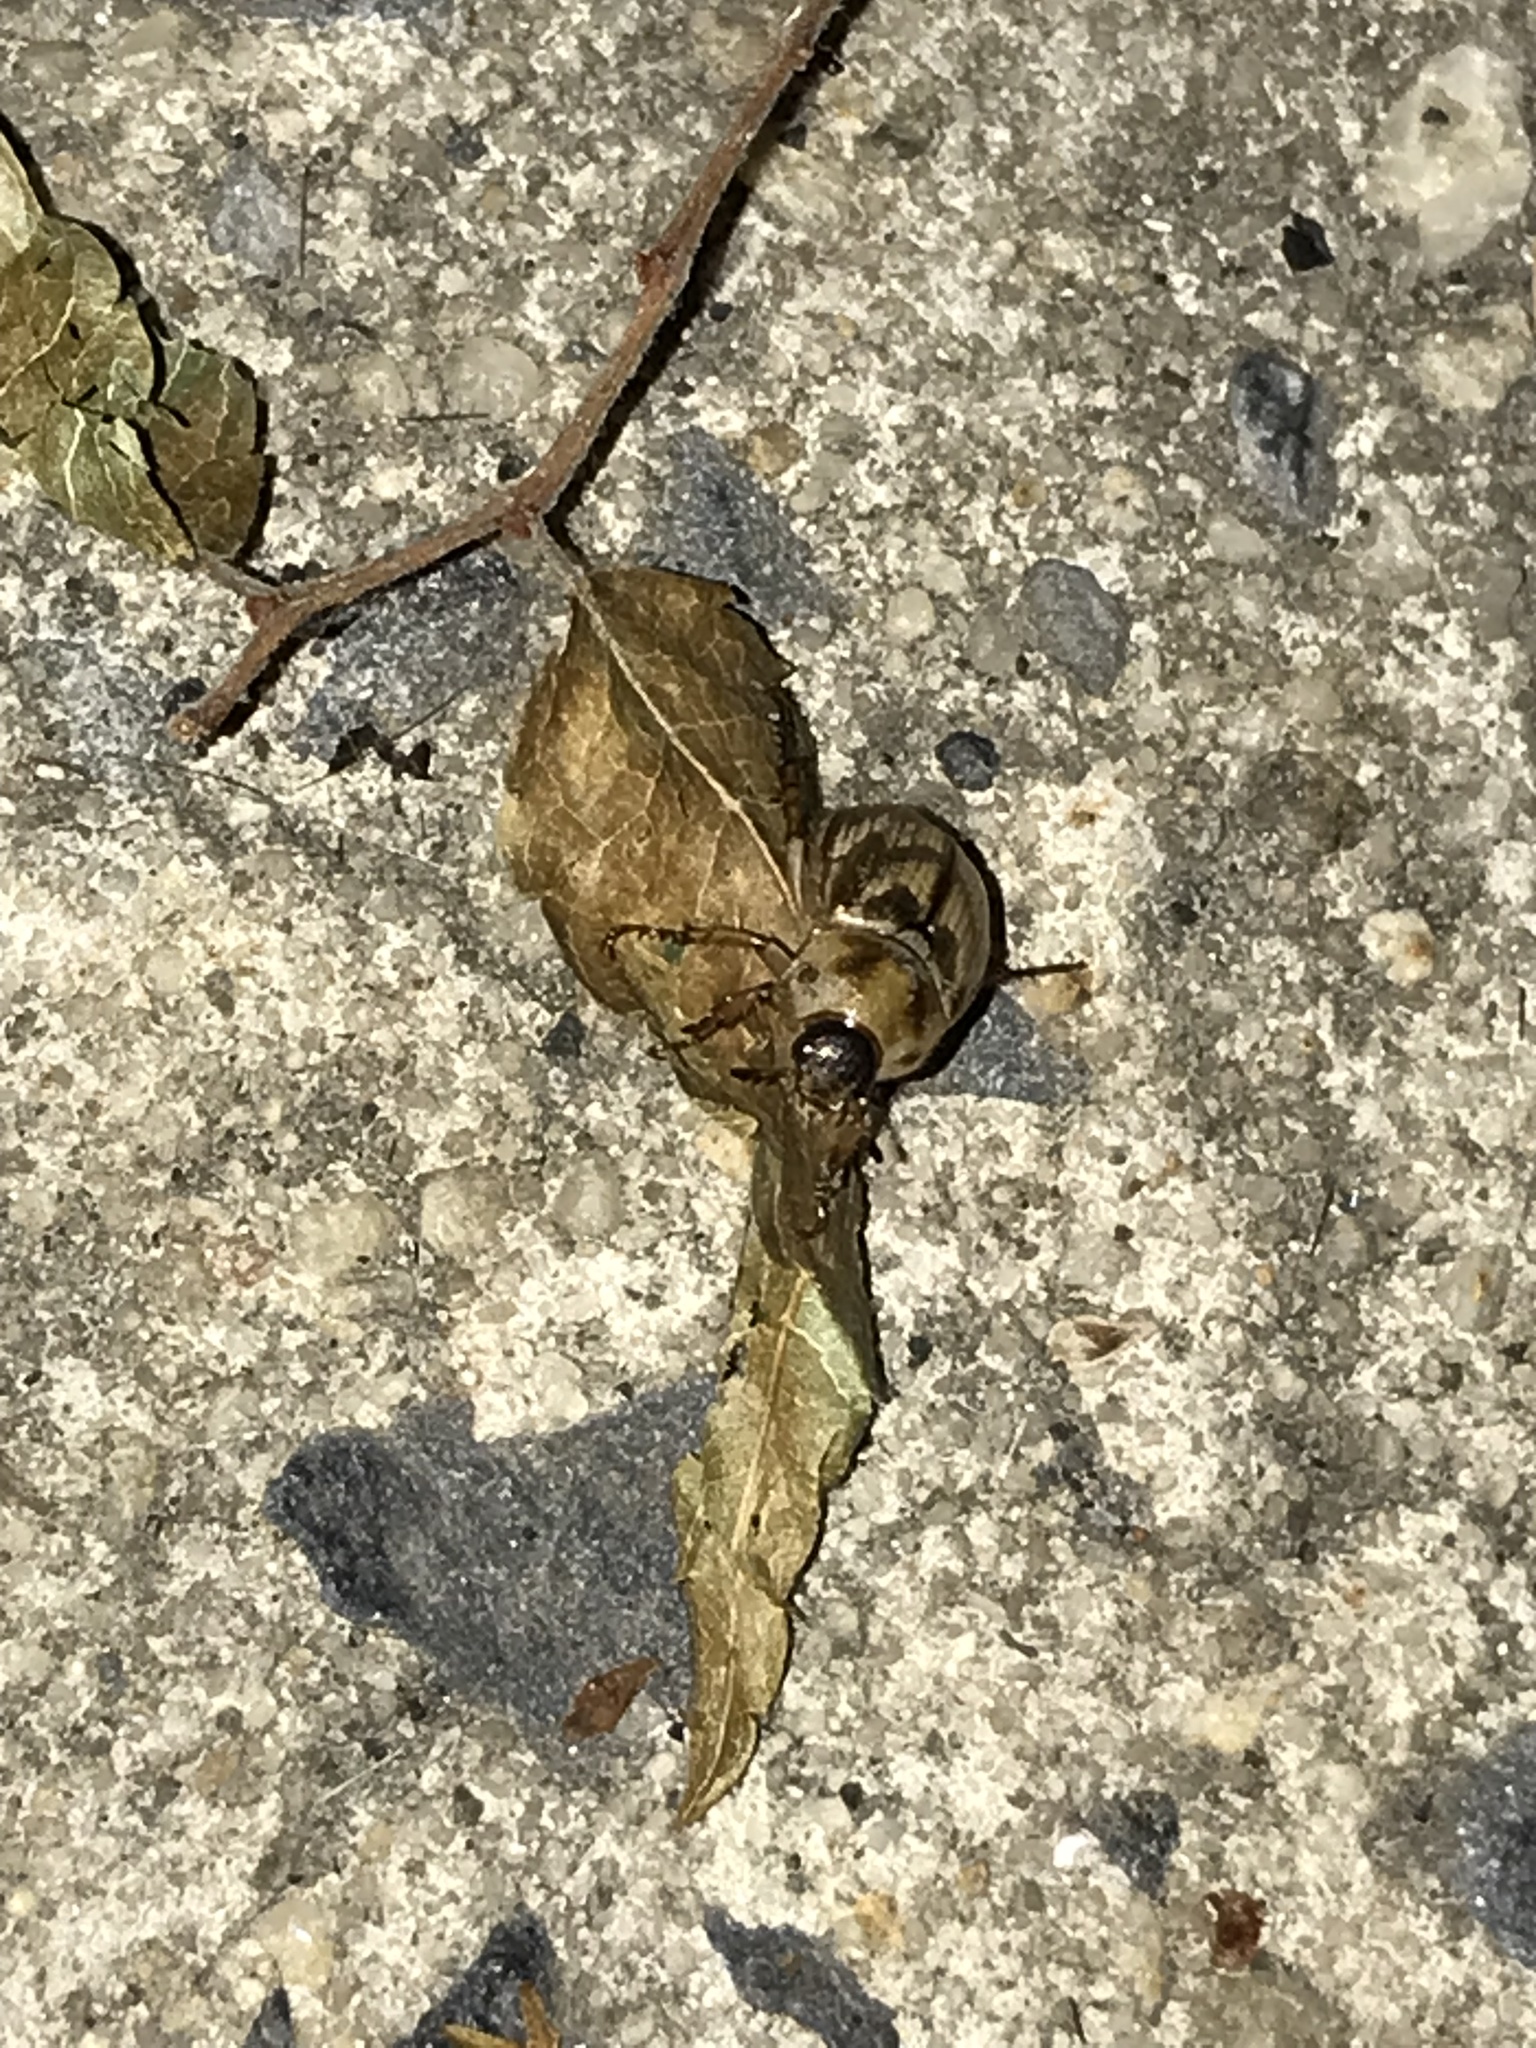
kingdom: Animalia
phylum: Arthropoda
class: Insecta
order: Coleoptera
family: Scarabaeidae
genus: Exomala
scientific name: Exomala orientalis
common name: Oriental beetle
